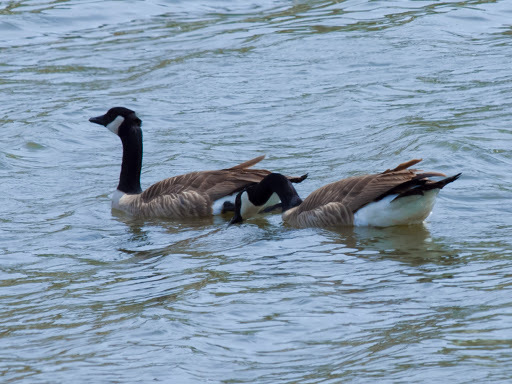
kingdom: Animalia
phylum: Chordata
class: Aves
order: Anseriformes
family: Anatidae
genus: Branta
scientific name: Branta canadensis
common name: Canada goose
